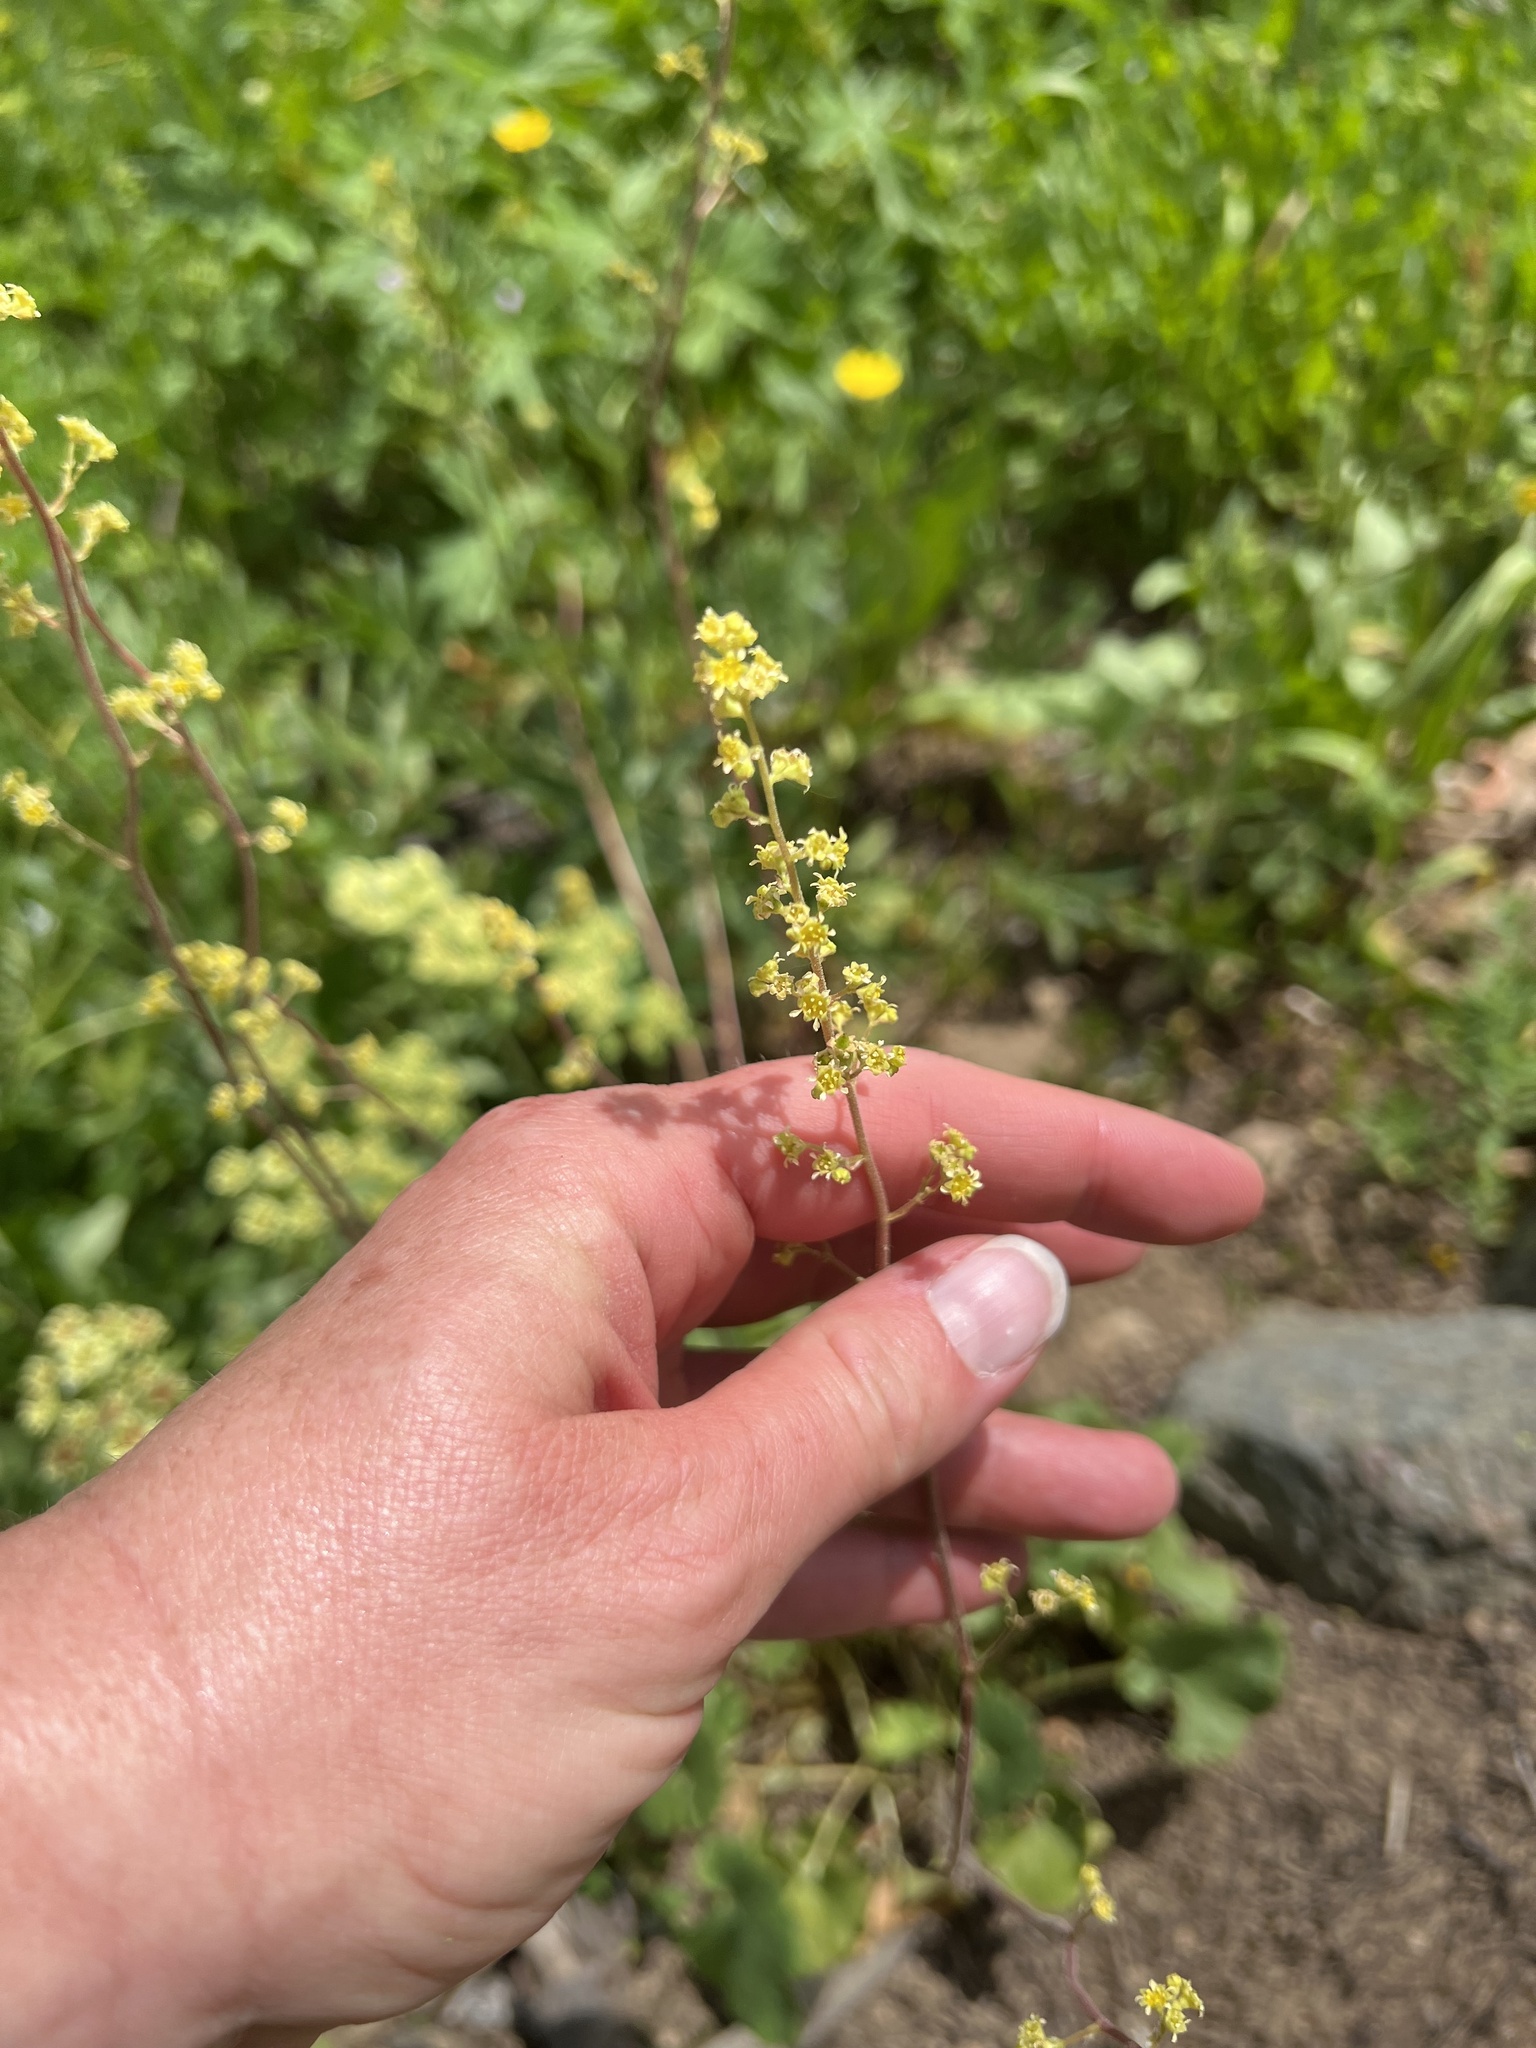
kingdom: Plantae
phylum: Tracheophyta
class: Magnoliopsida
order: Saxifragales
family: Saxifragaceae
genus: Heuchera
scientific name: Heuchera parvifolia
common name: Common alumroot
